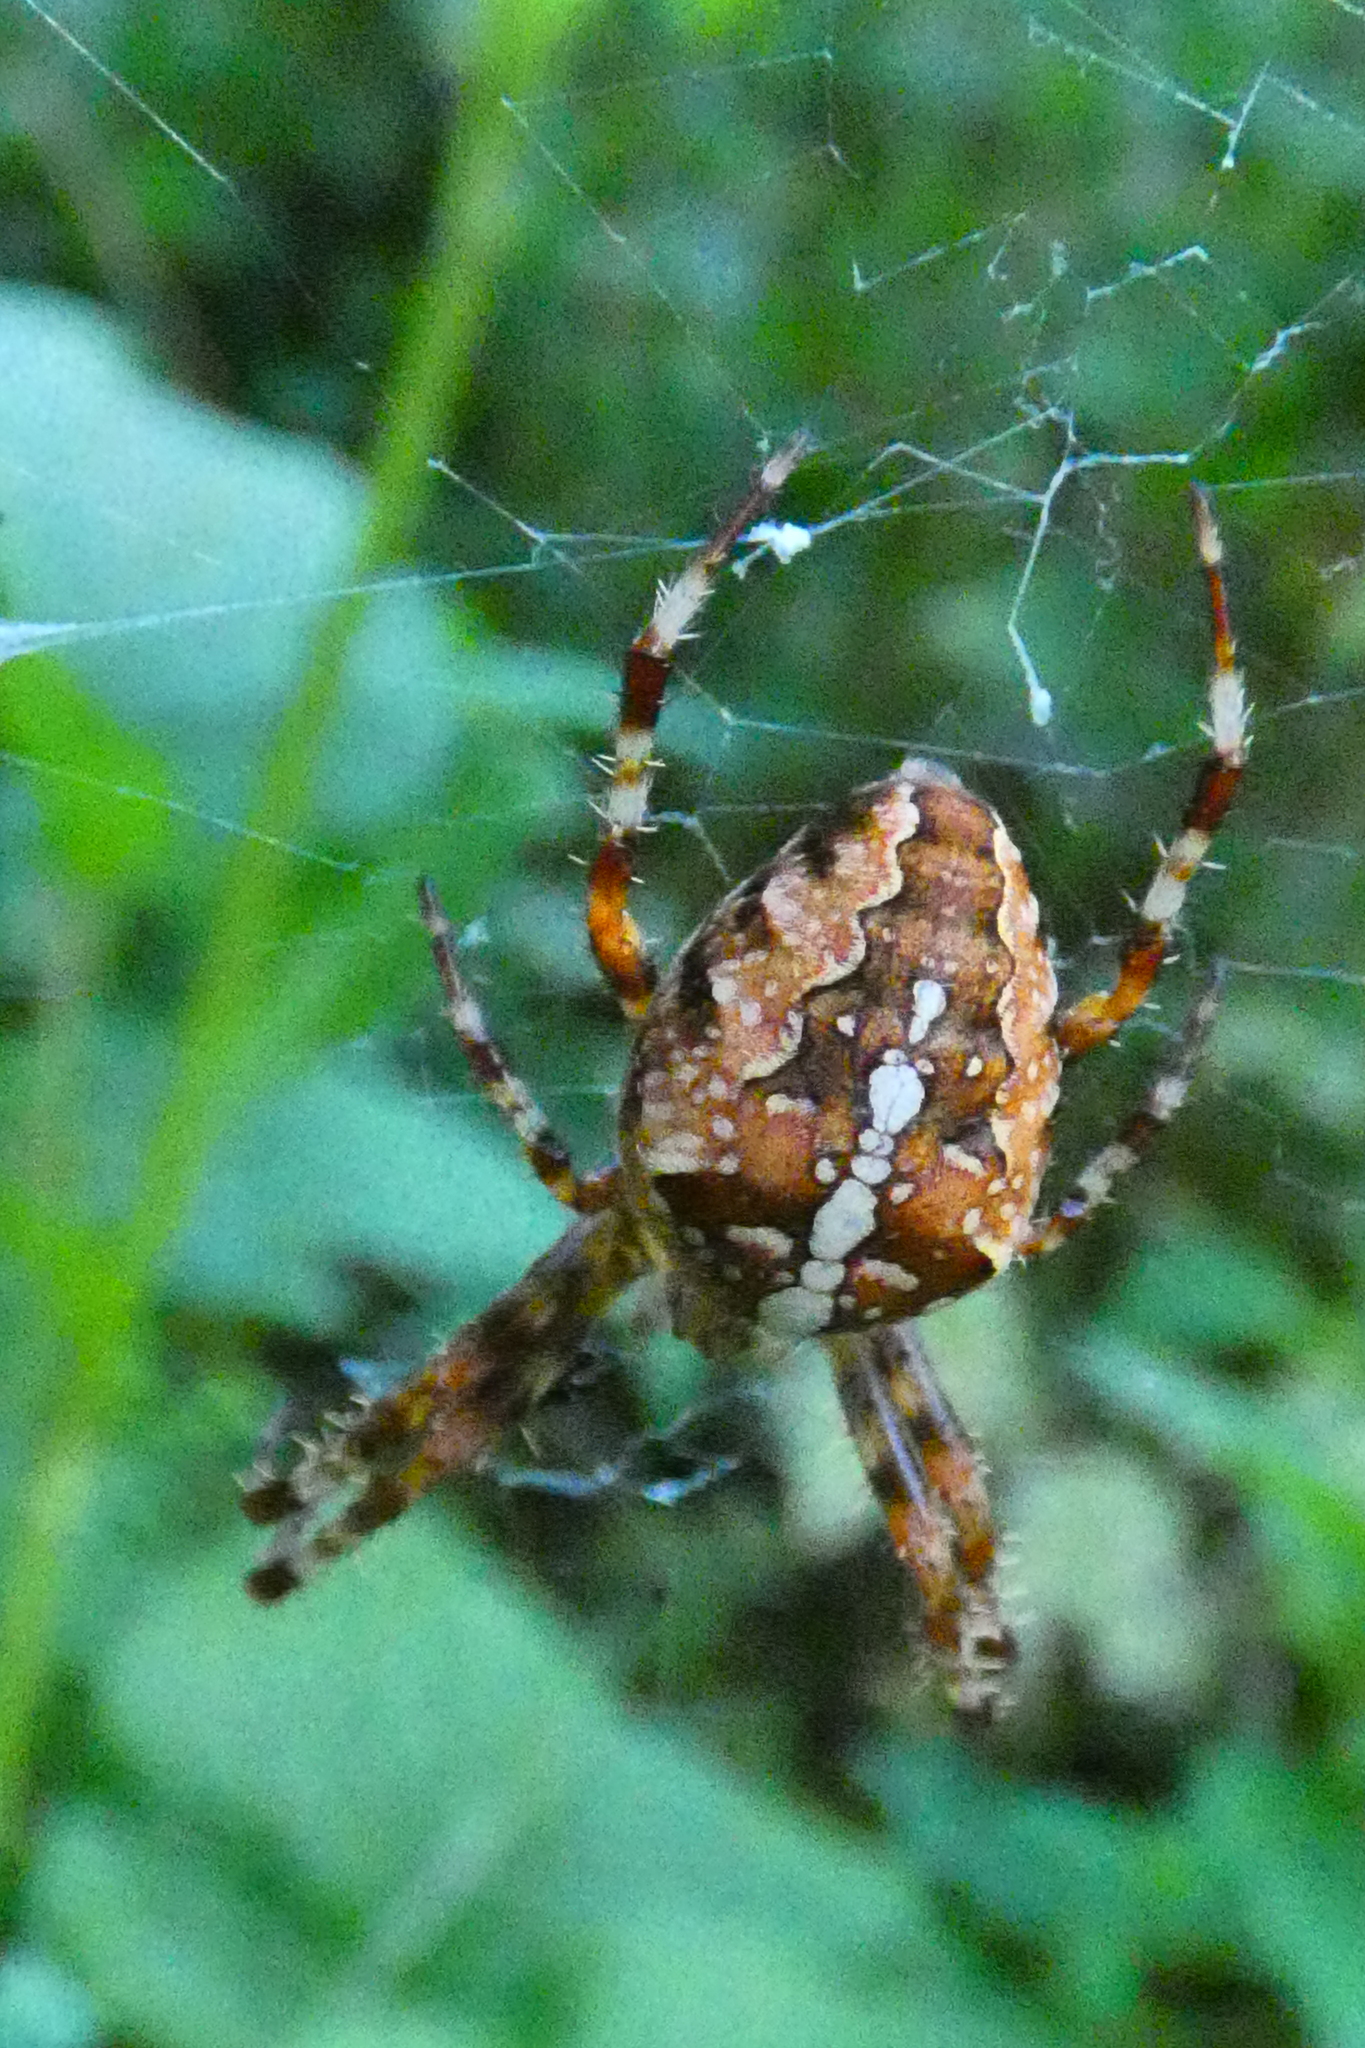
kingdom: Animalia
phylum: Arthropoda
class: Arachnida
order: Araneae
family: Araneidae
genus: Araneus
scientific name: Araneus diadematus
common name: Cross orbweaver
